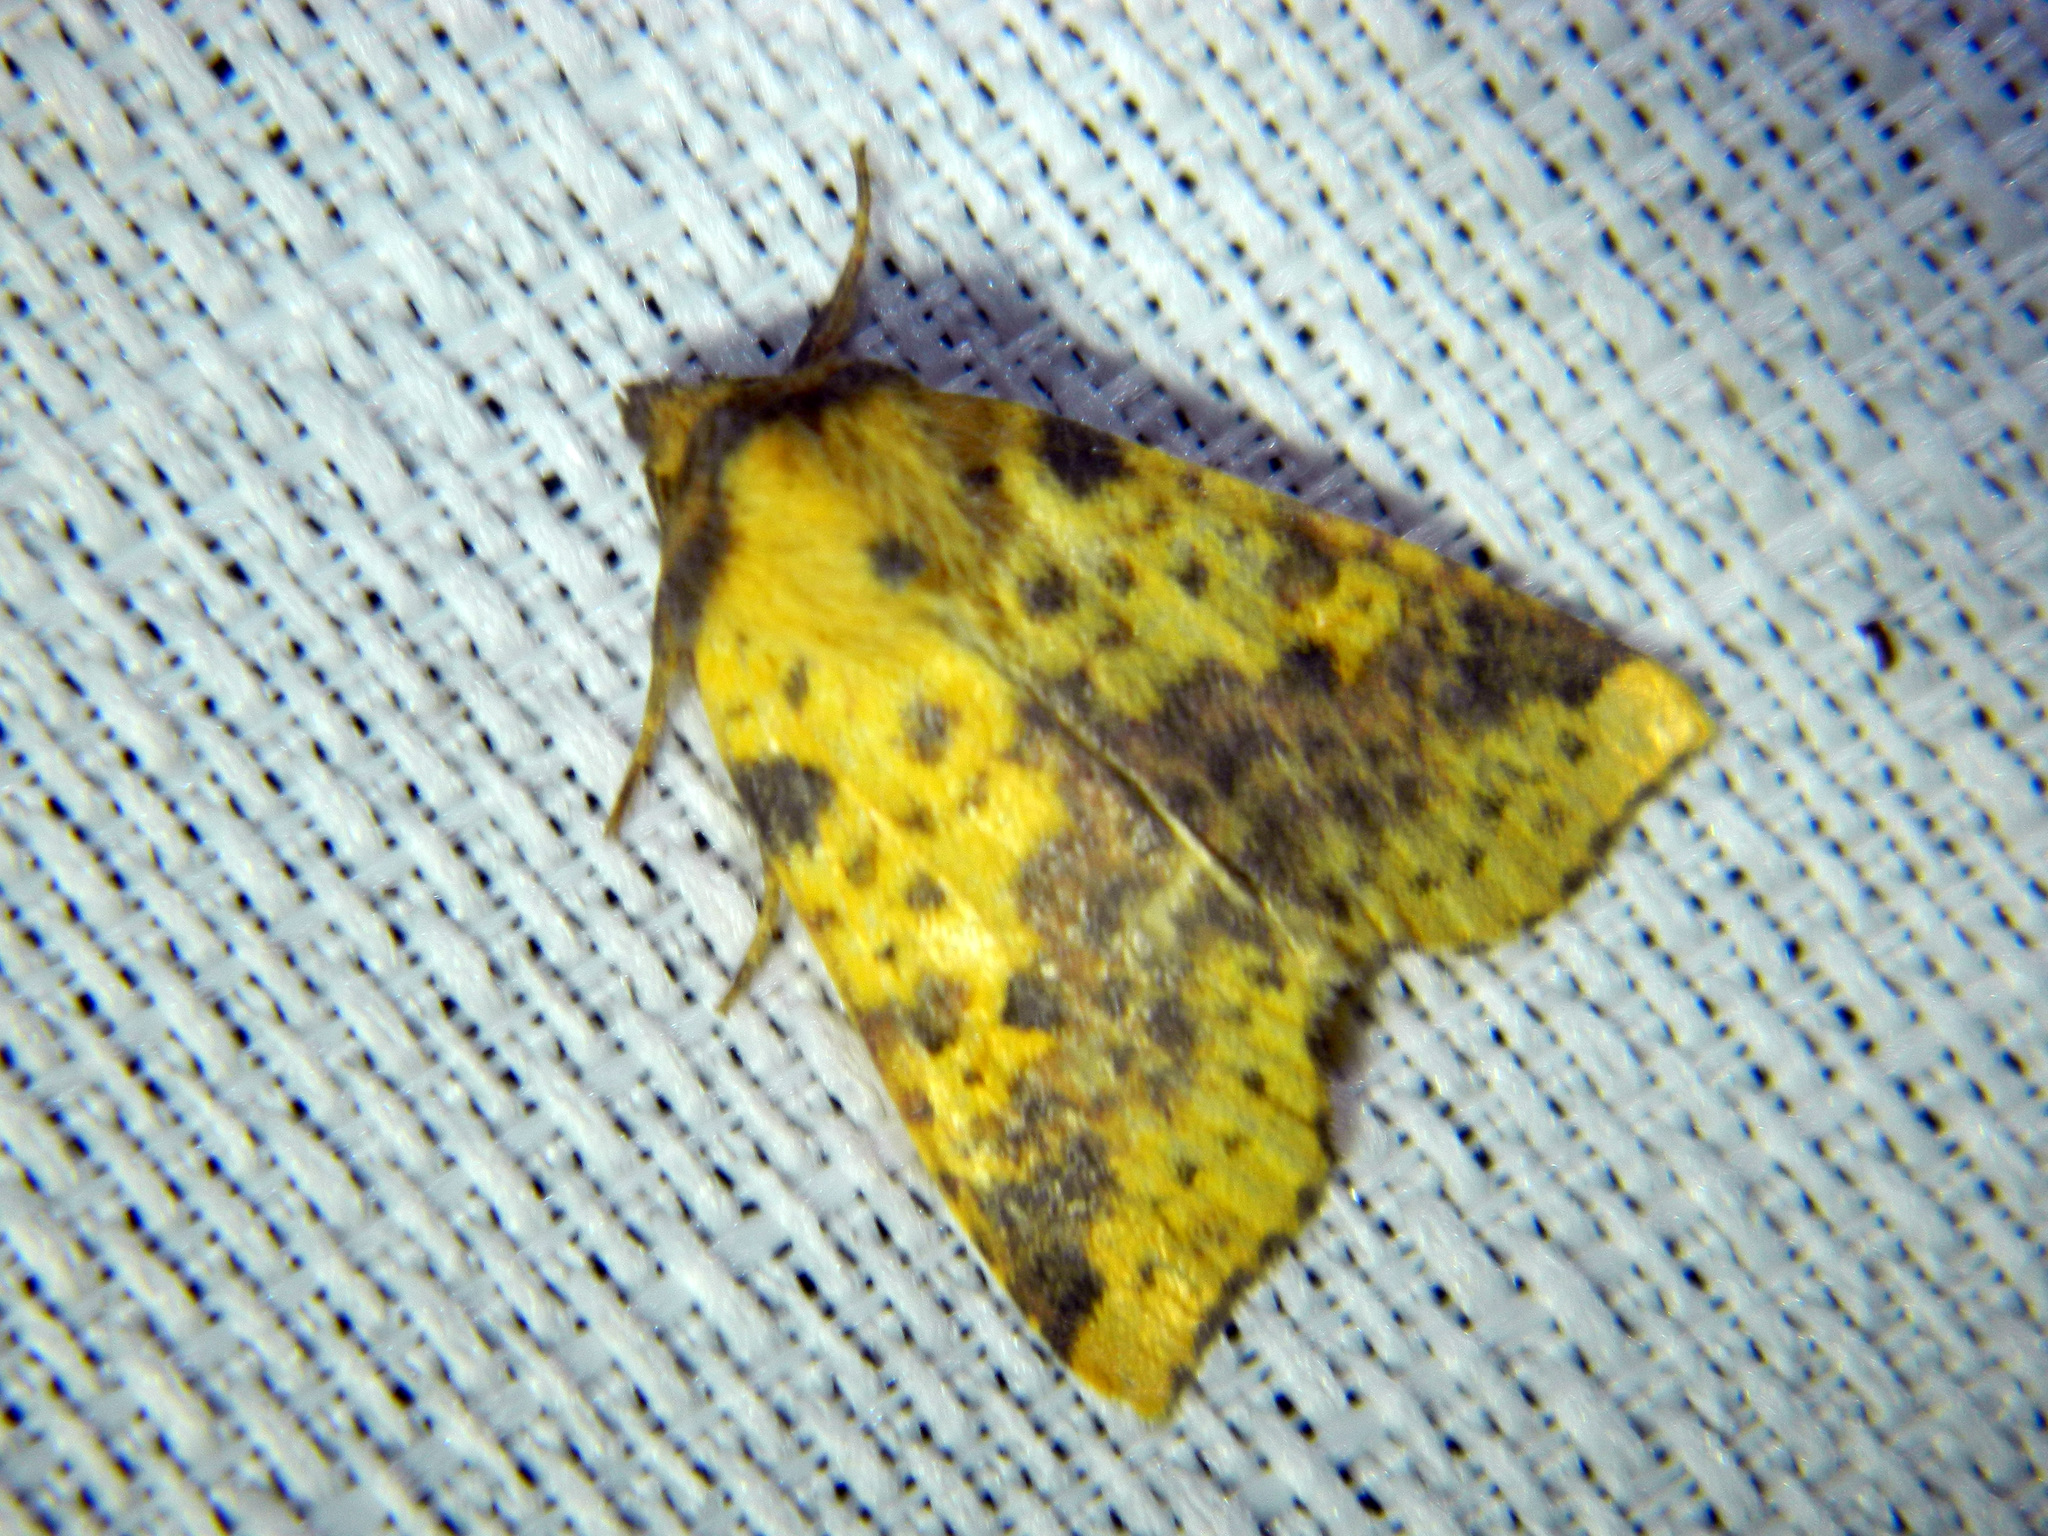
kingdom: Animalia
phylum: Arthropoda
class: Insecta
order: Lepidoptera
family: Noctuidae
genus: Xanthia
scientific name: Xanthia tatago
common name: Pink-banded sallow
